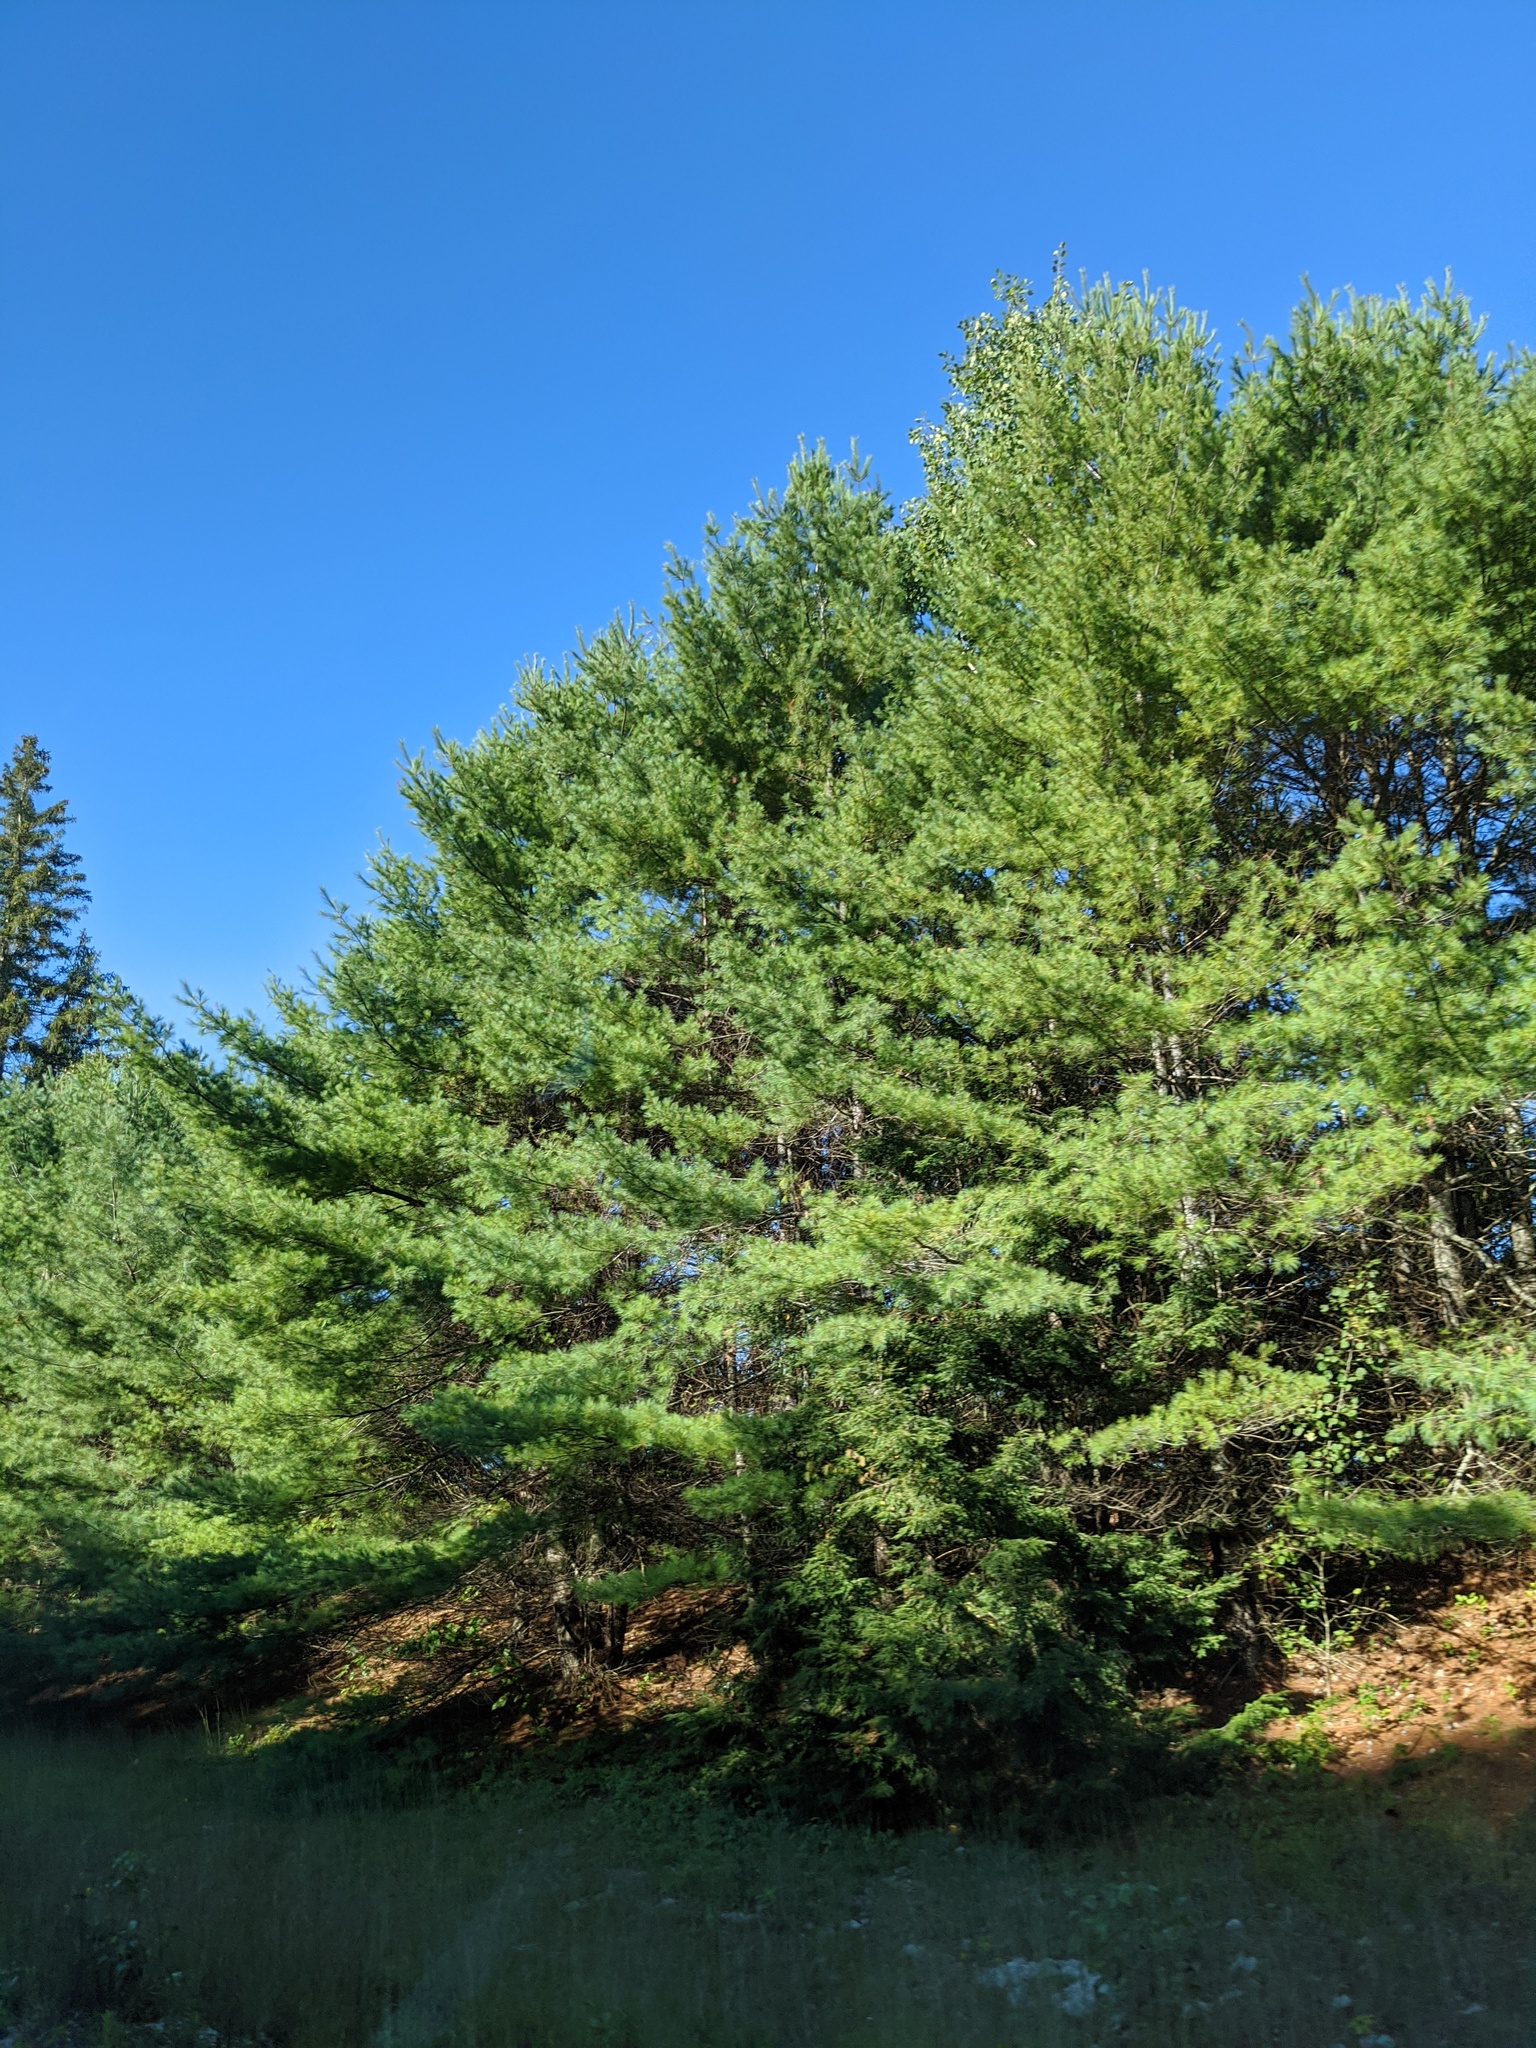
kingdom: Plantae
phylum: Tracheophyta
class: Pinopsida
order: Pinales
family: Pinaceae
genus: Pinus
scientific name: Pinus strobus
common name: Weymouth pine
